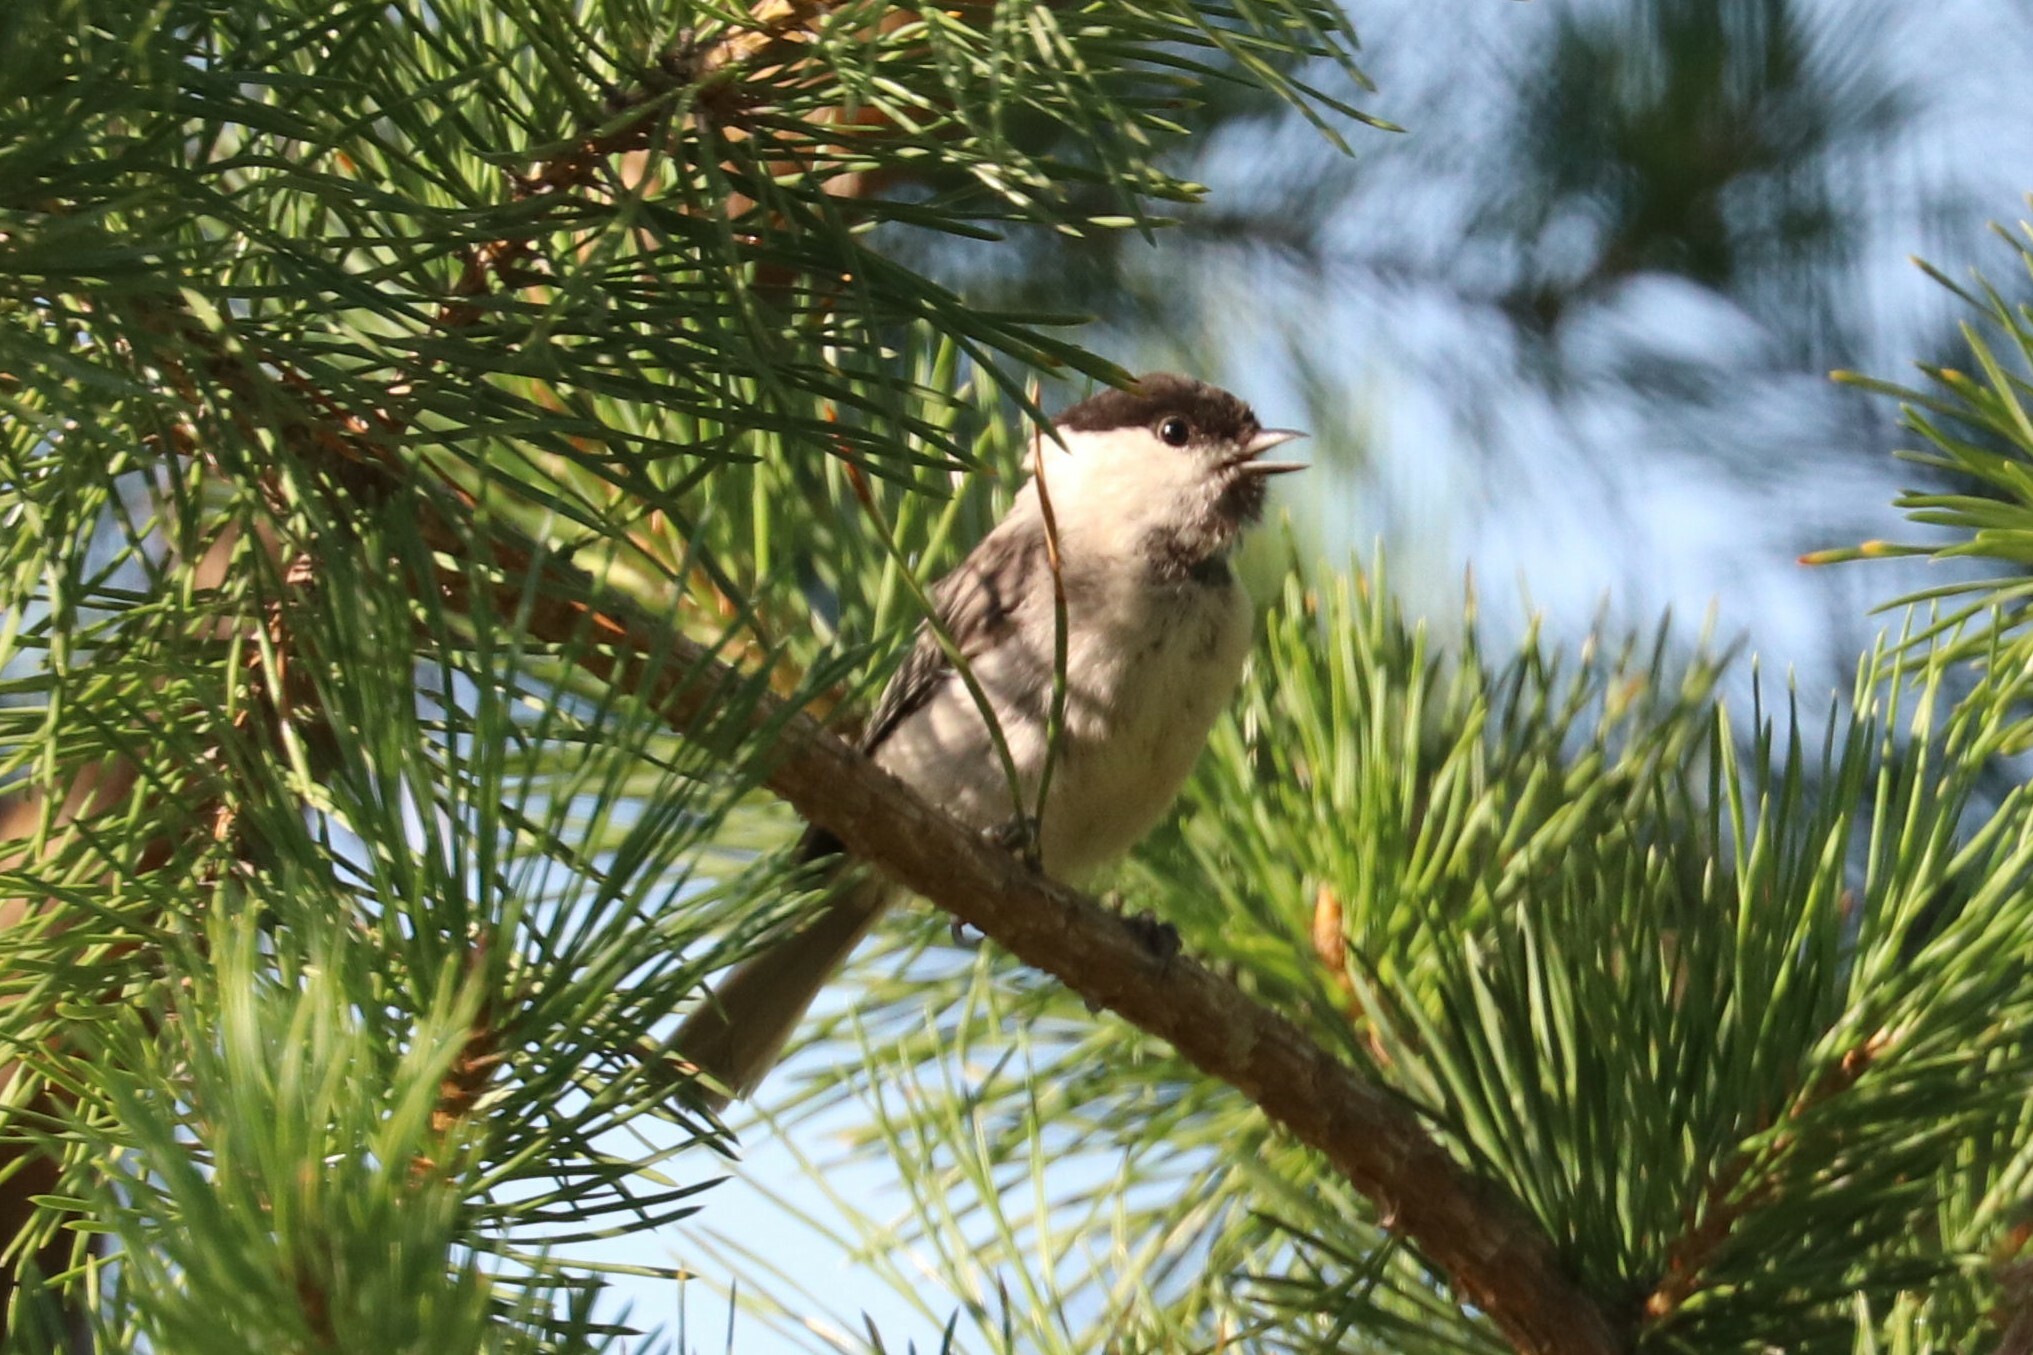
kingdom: Animalia
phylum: Chordata
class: Aves
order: Passeriformes
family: Paridae
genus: Poecile
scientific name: Poecile montanus
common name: Willow tit
